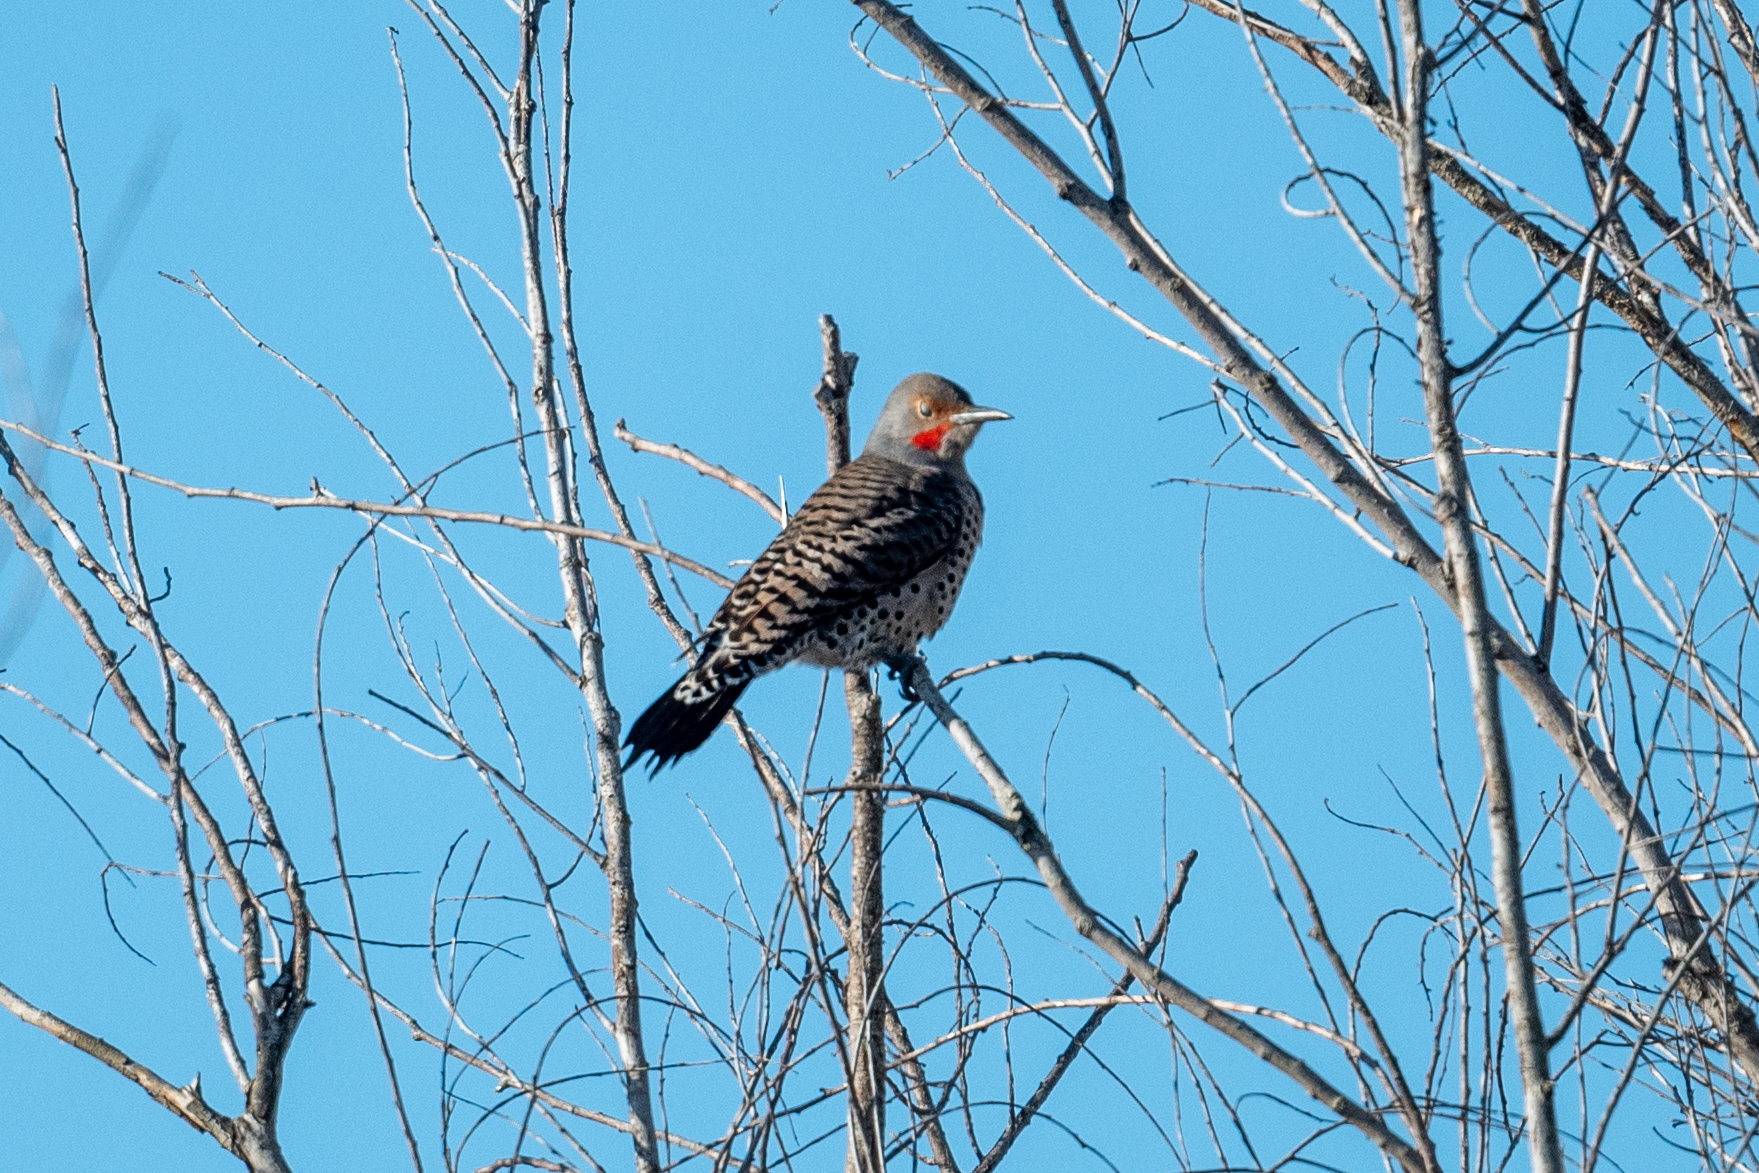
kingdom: Animalia
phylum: Chordata
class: Aves
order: Piciformes
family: Picidae
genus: Colaptes
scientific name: Colaptes auratus
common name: Northern flicker
